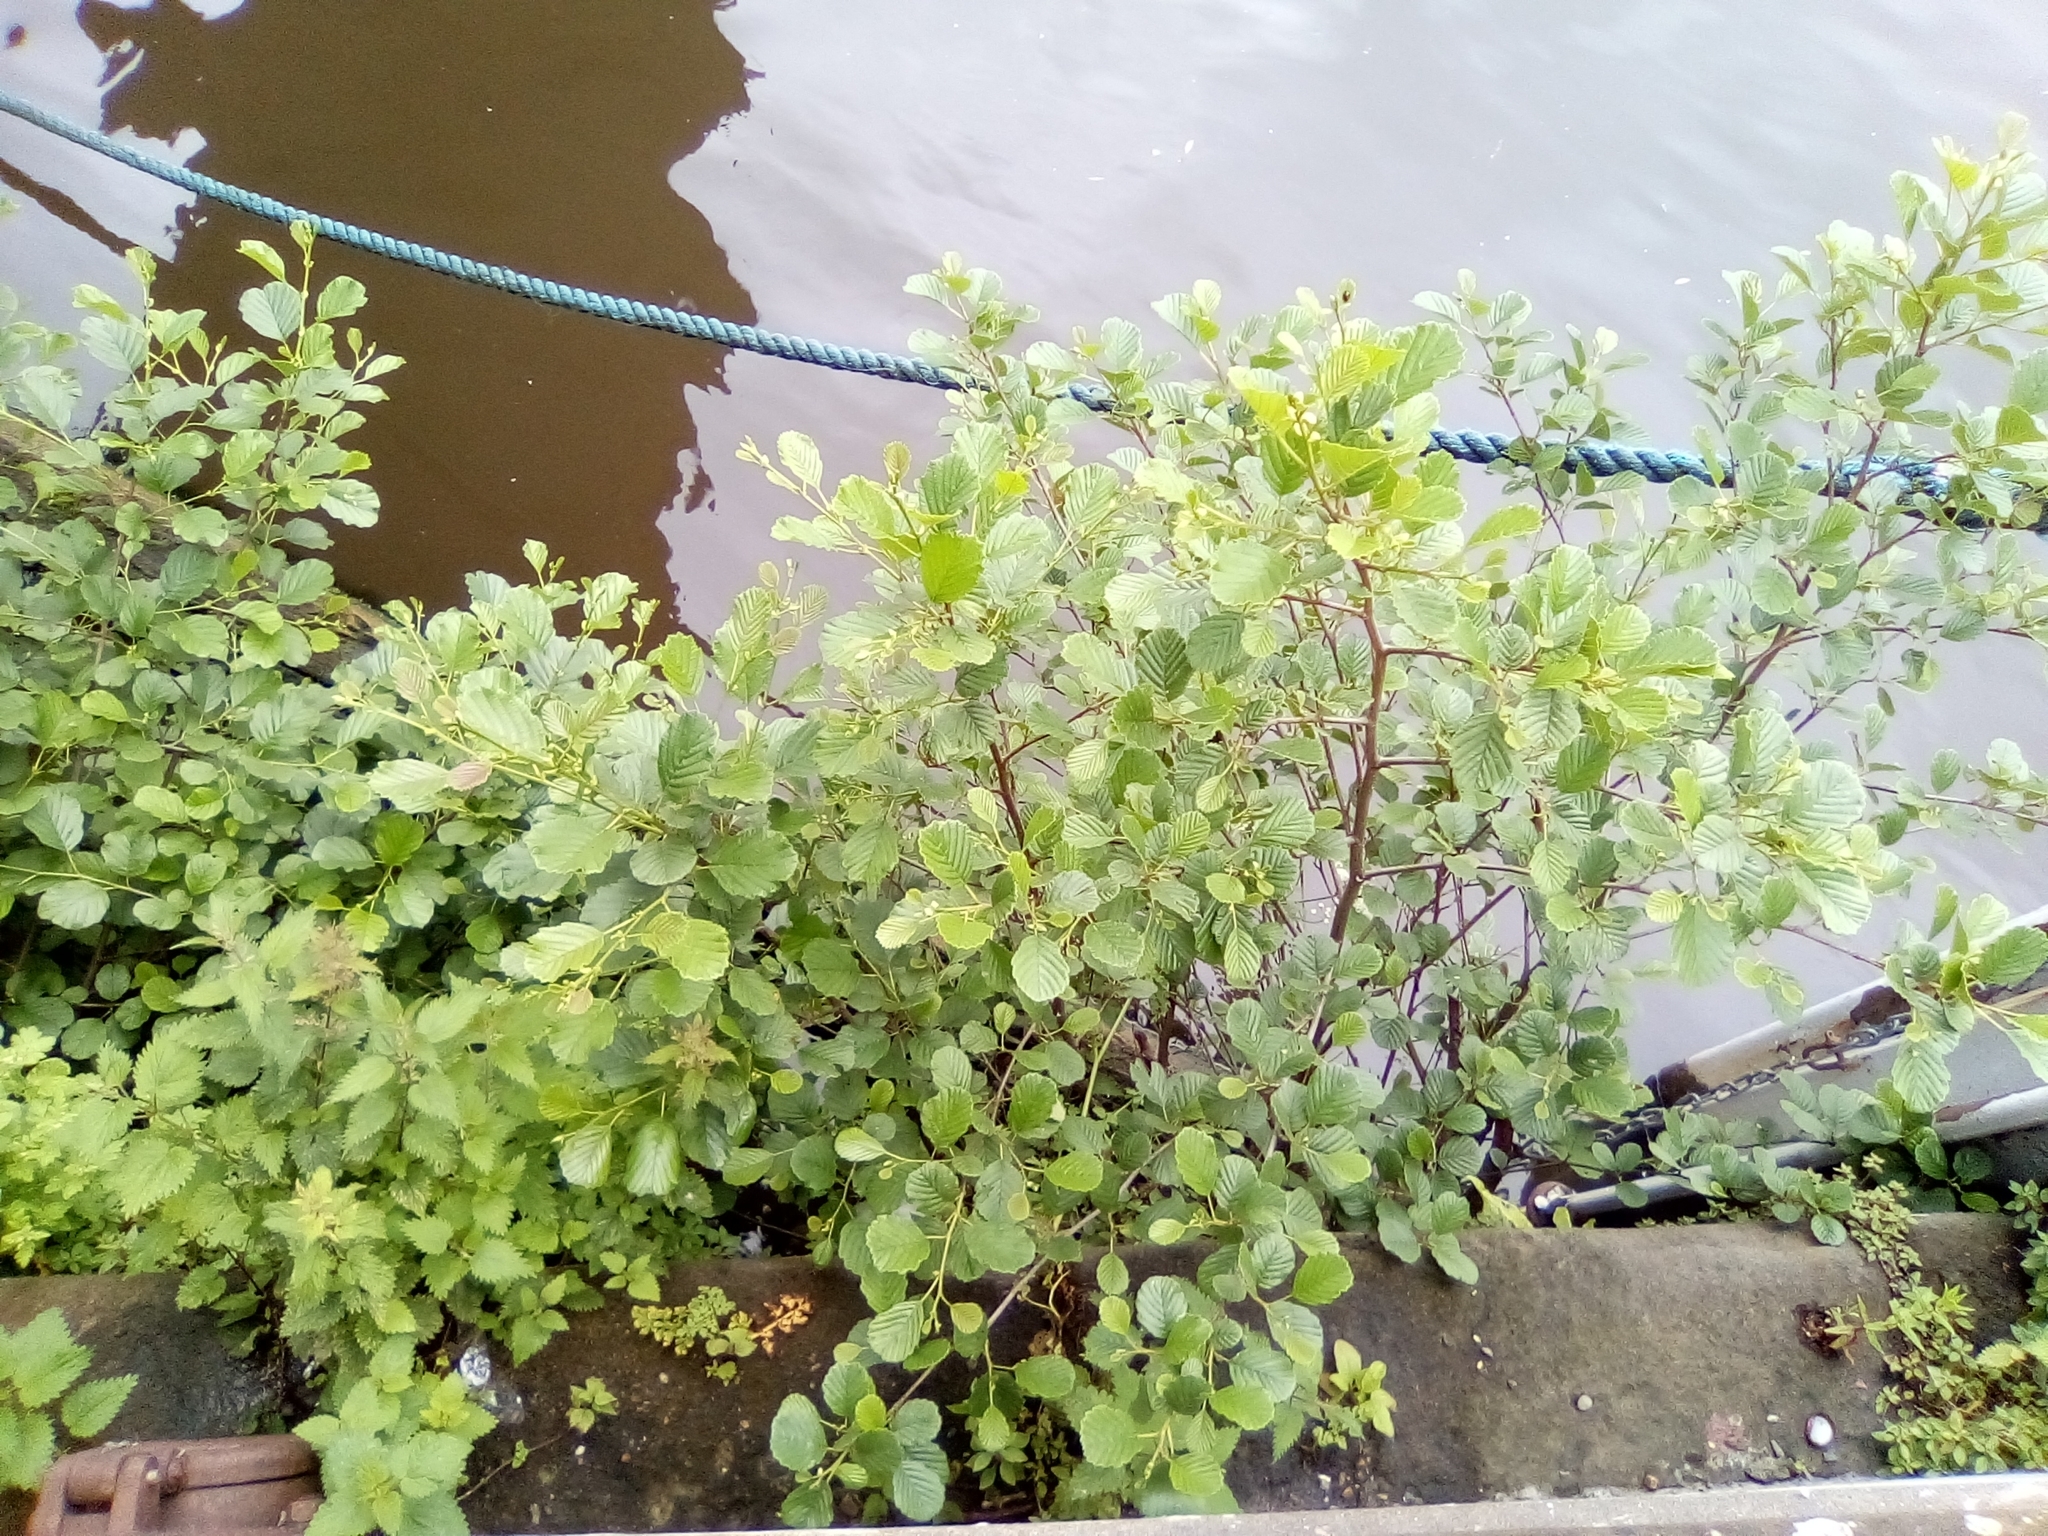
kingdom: Plantae
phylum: Tracheophyta
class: Magnoliopsida
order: Fagales
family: Betulaceae
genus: Alnus
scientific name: Alnus glutinosa
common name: Black alder
